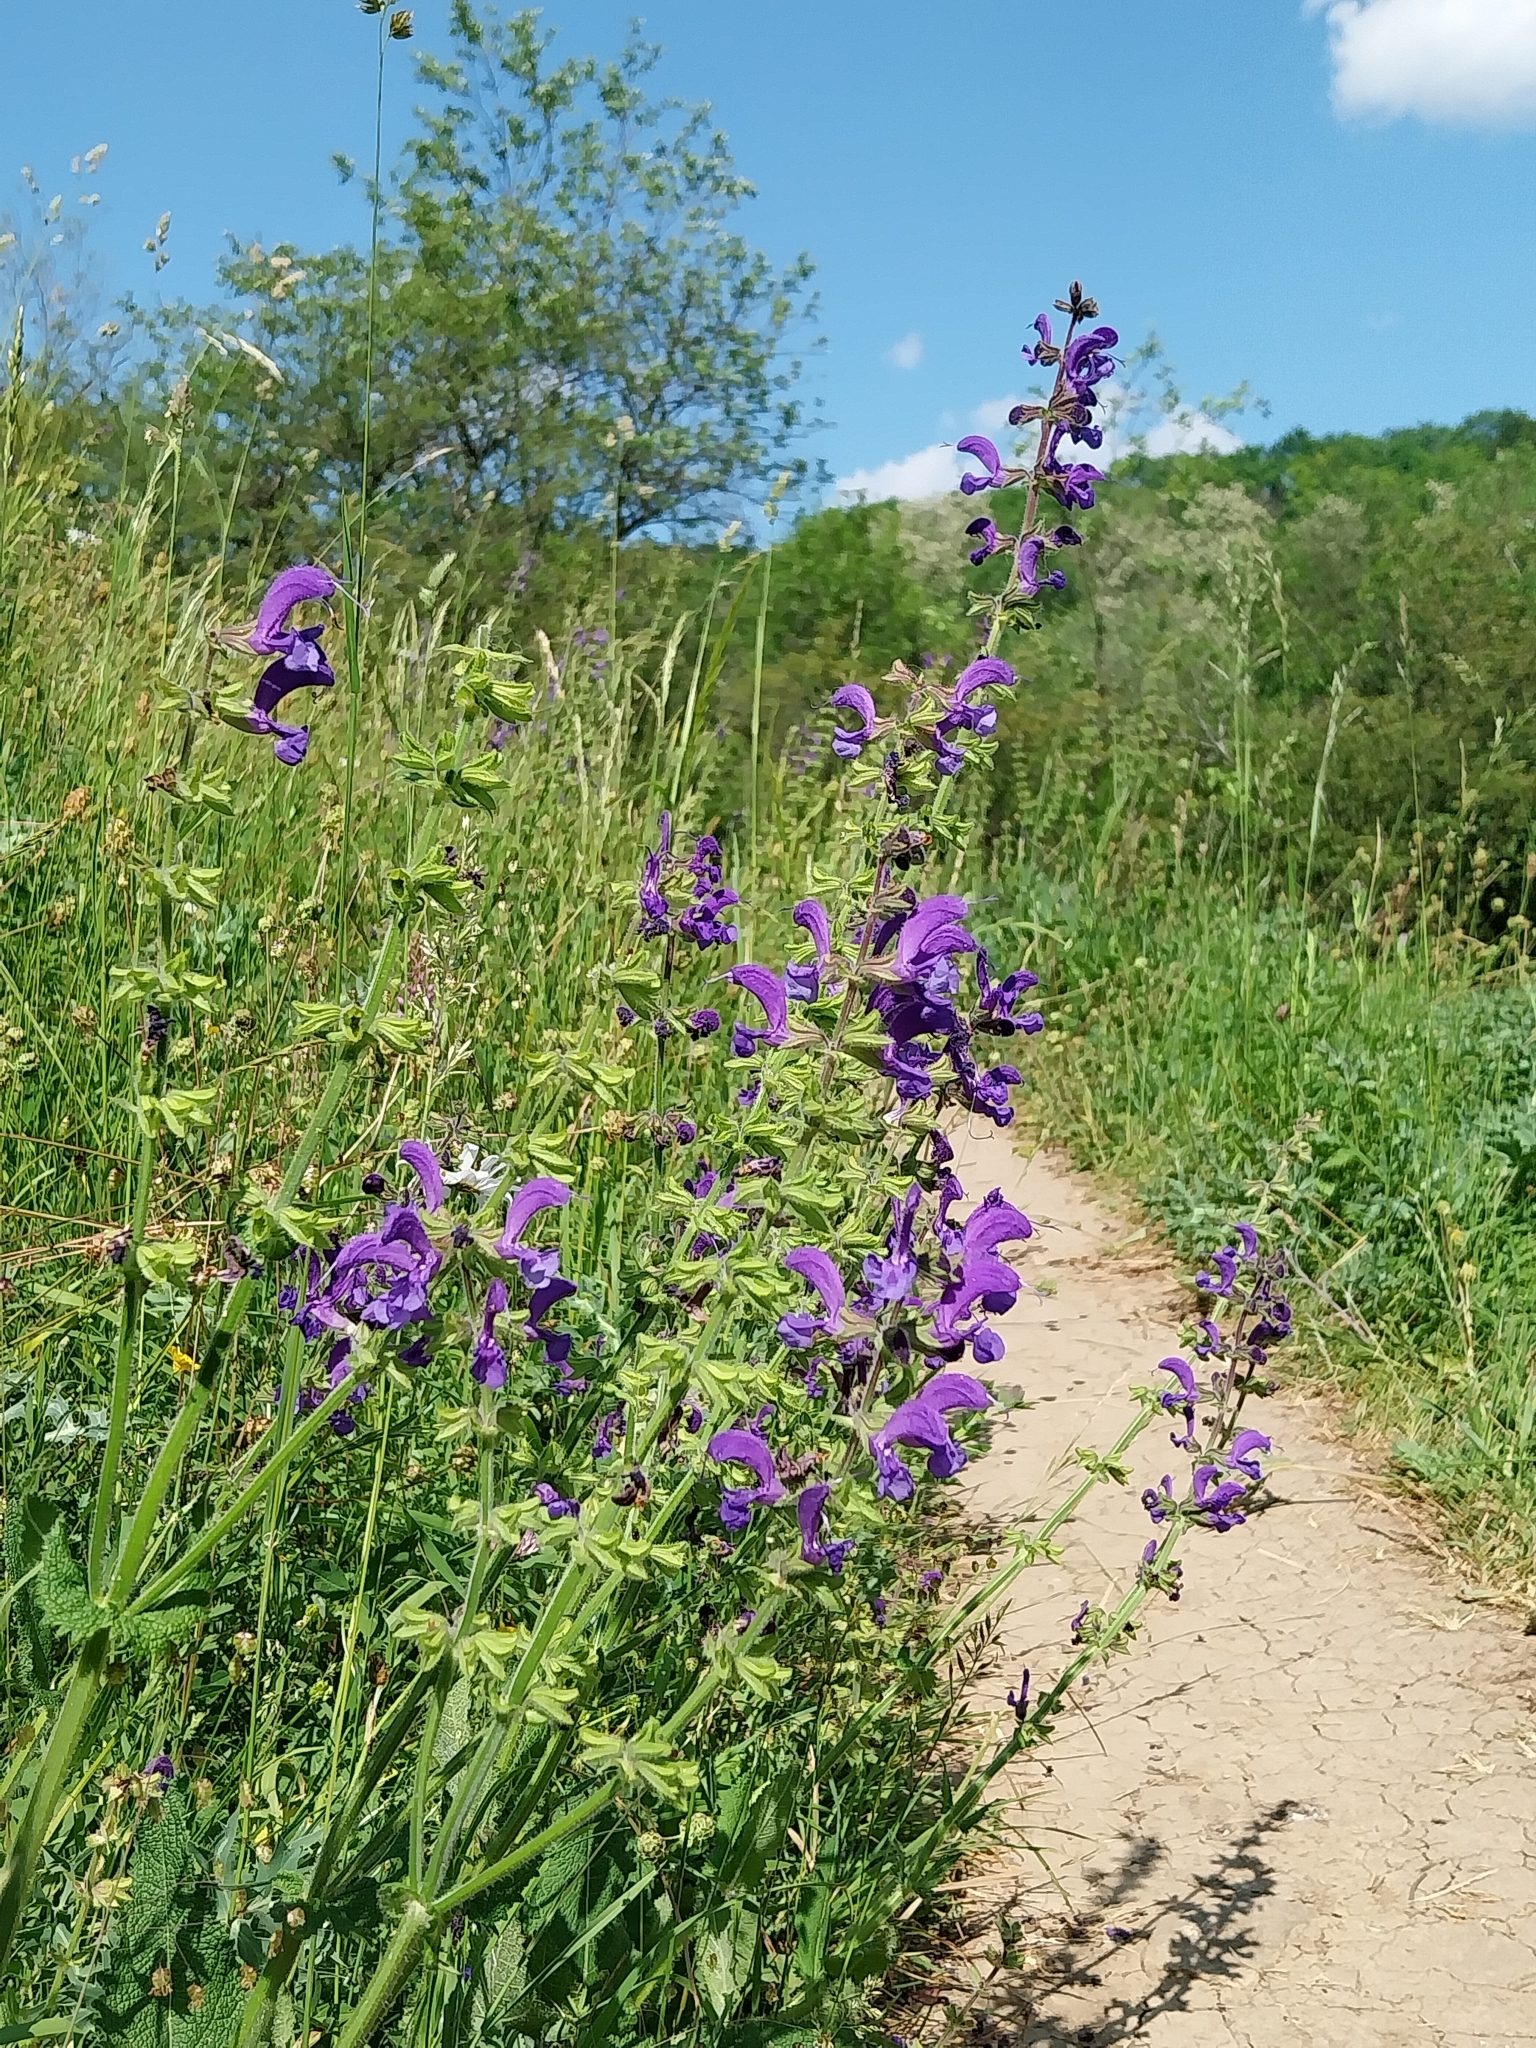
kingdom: Plantae
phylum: Tracheophyta
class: Magnoliopsida
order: Lamiales
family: Lamiaceae
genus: Salvia
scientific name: Salvia pratensis
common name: Meadow sage
